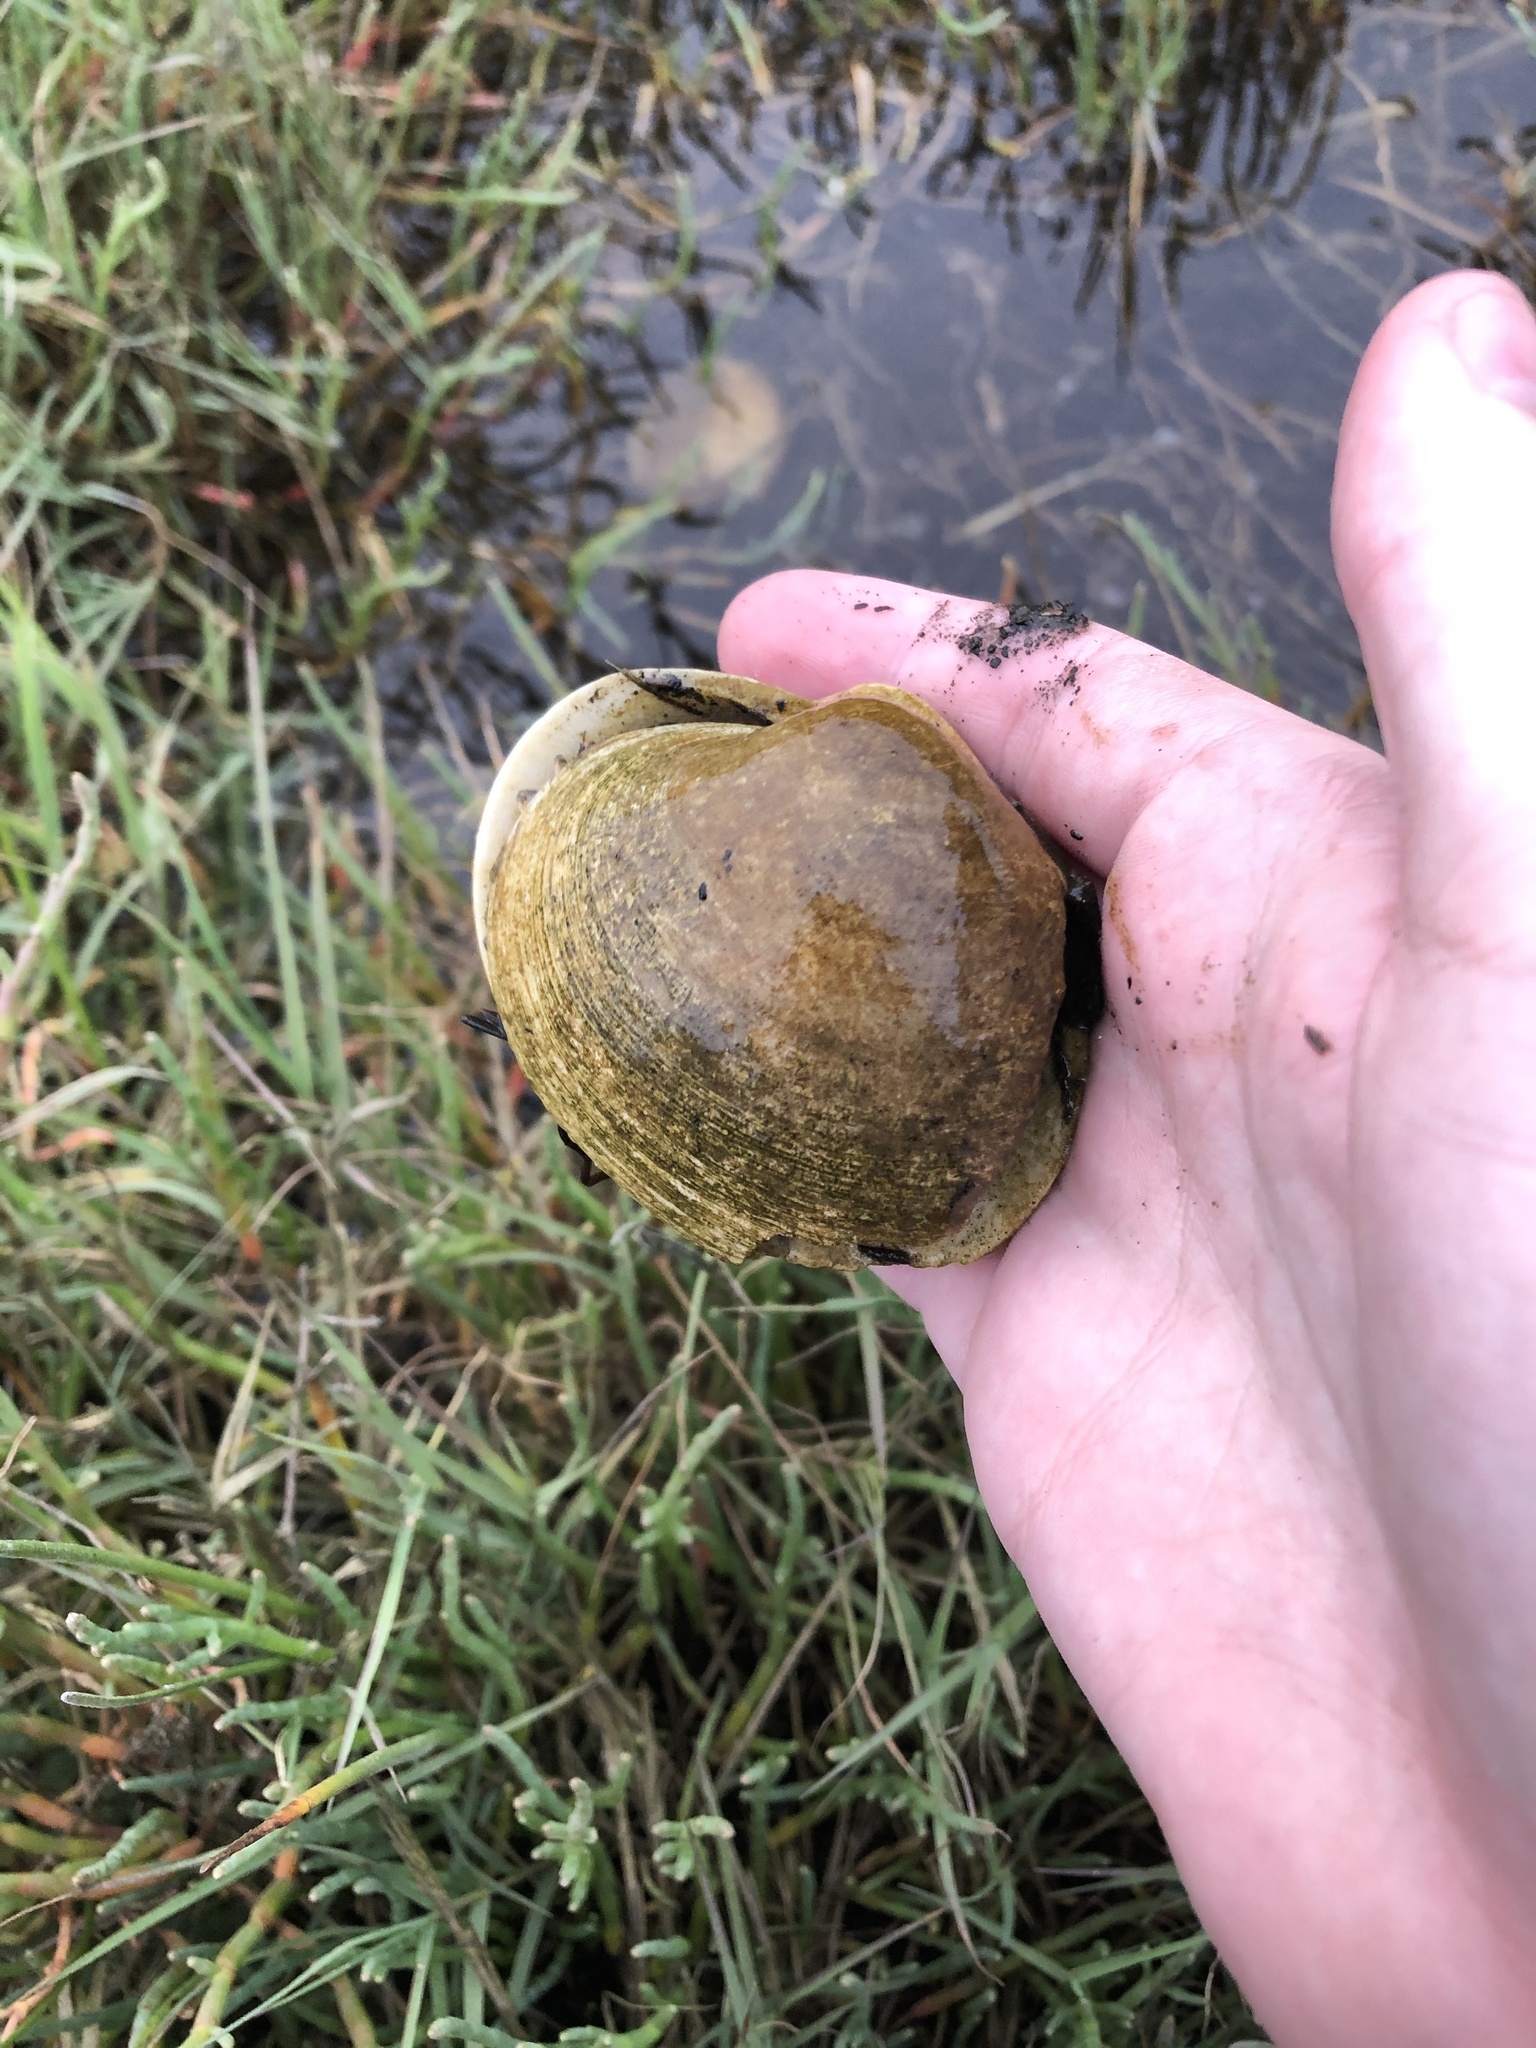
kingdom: Animalia
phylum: Mollusca
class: Bivalvia
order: Venerida
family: Veneridae
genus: Saxidomus
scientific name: Saxidomus gigantea
